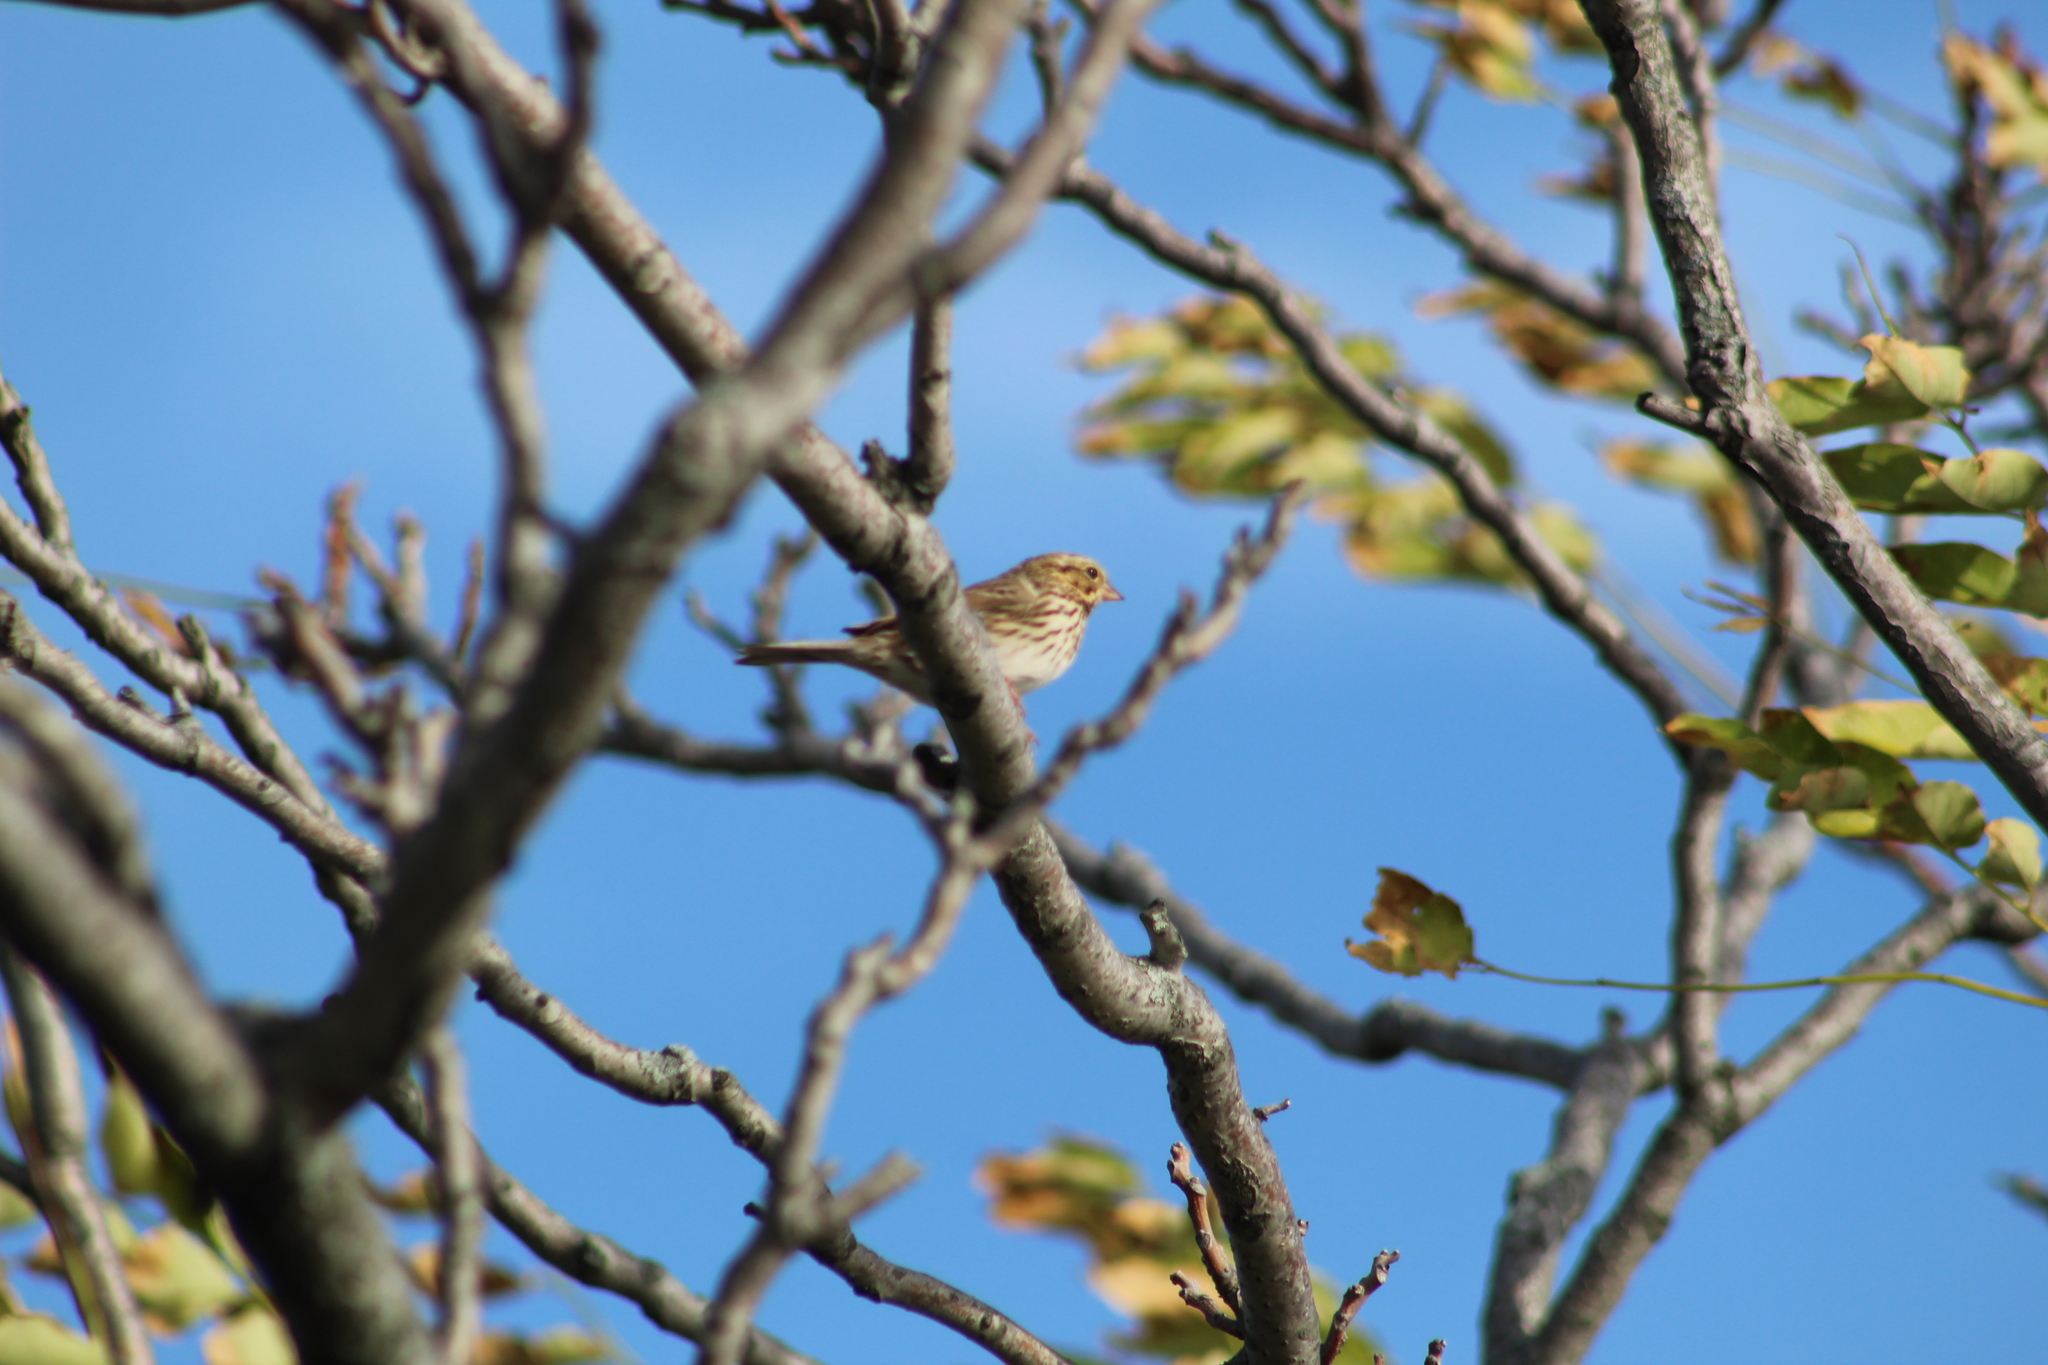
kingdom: Animalia
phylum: Chordata
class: Aves
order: Passeriformes
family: Passerellidae
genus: Passerculus
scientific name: Passerculus sandwichensis
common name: Savannah sparrow
